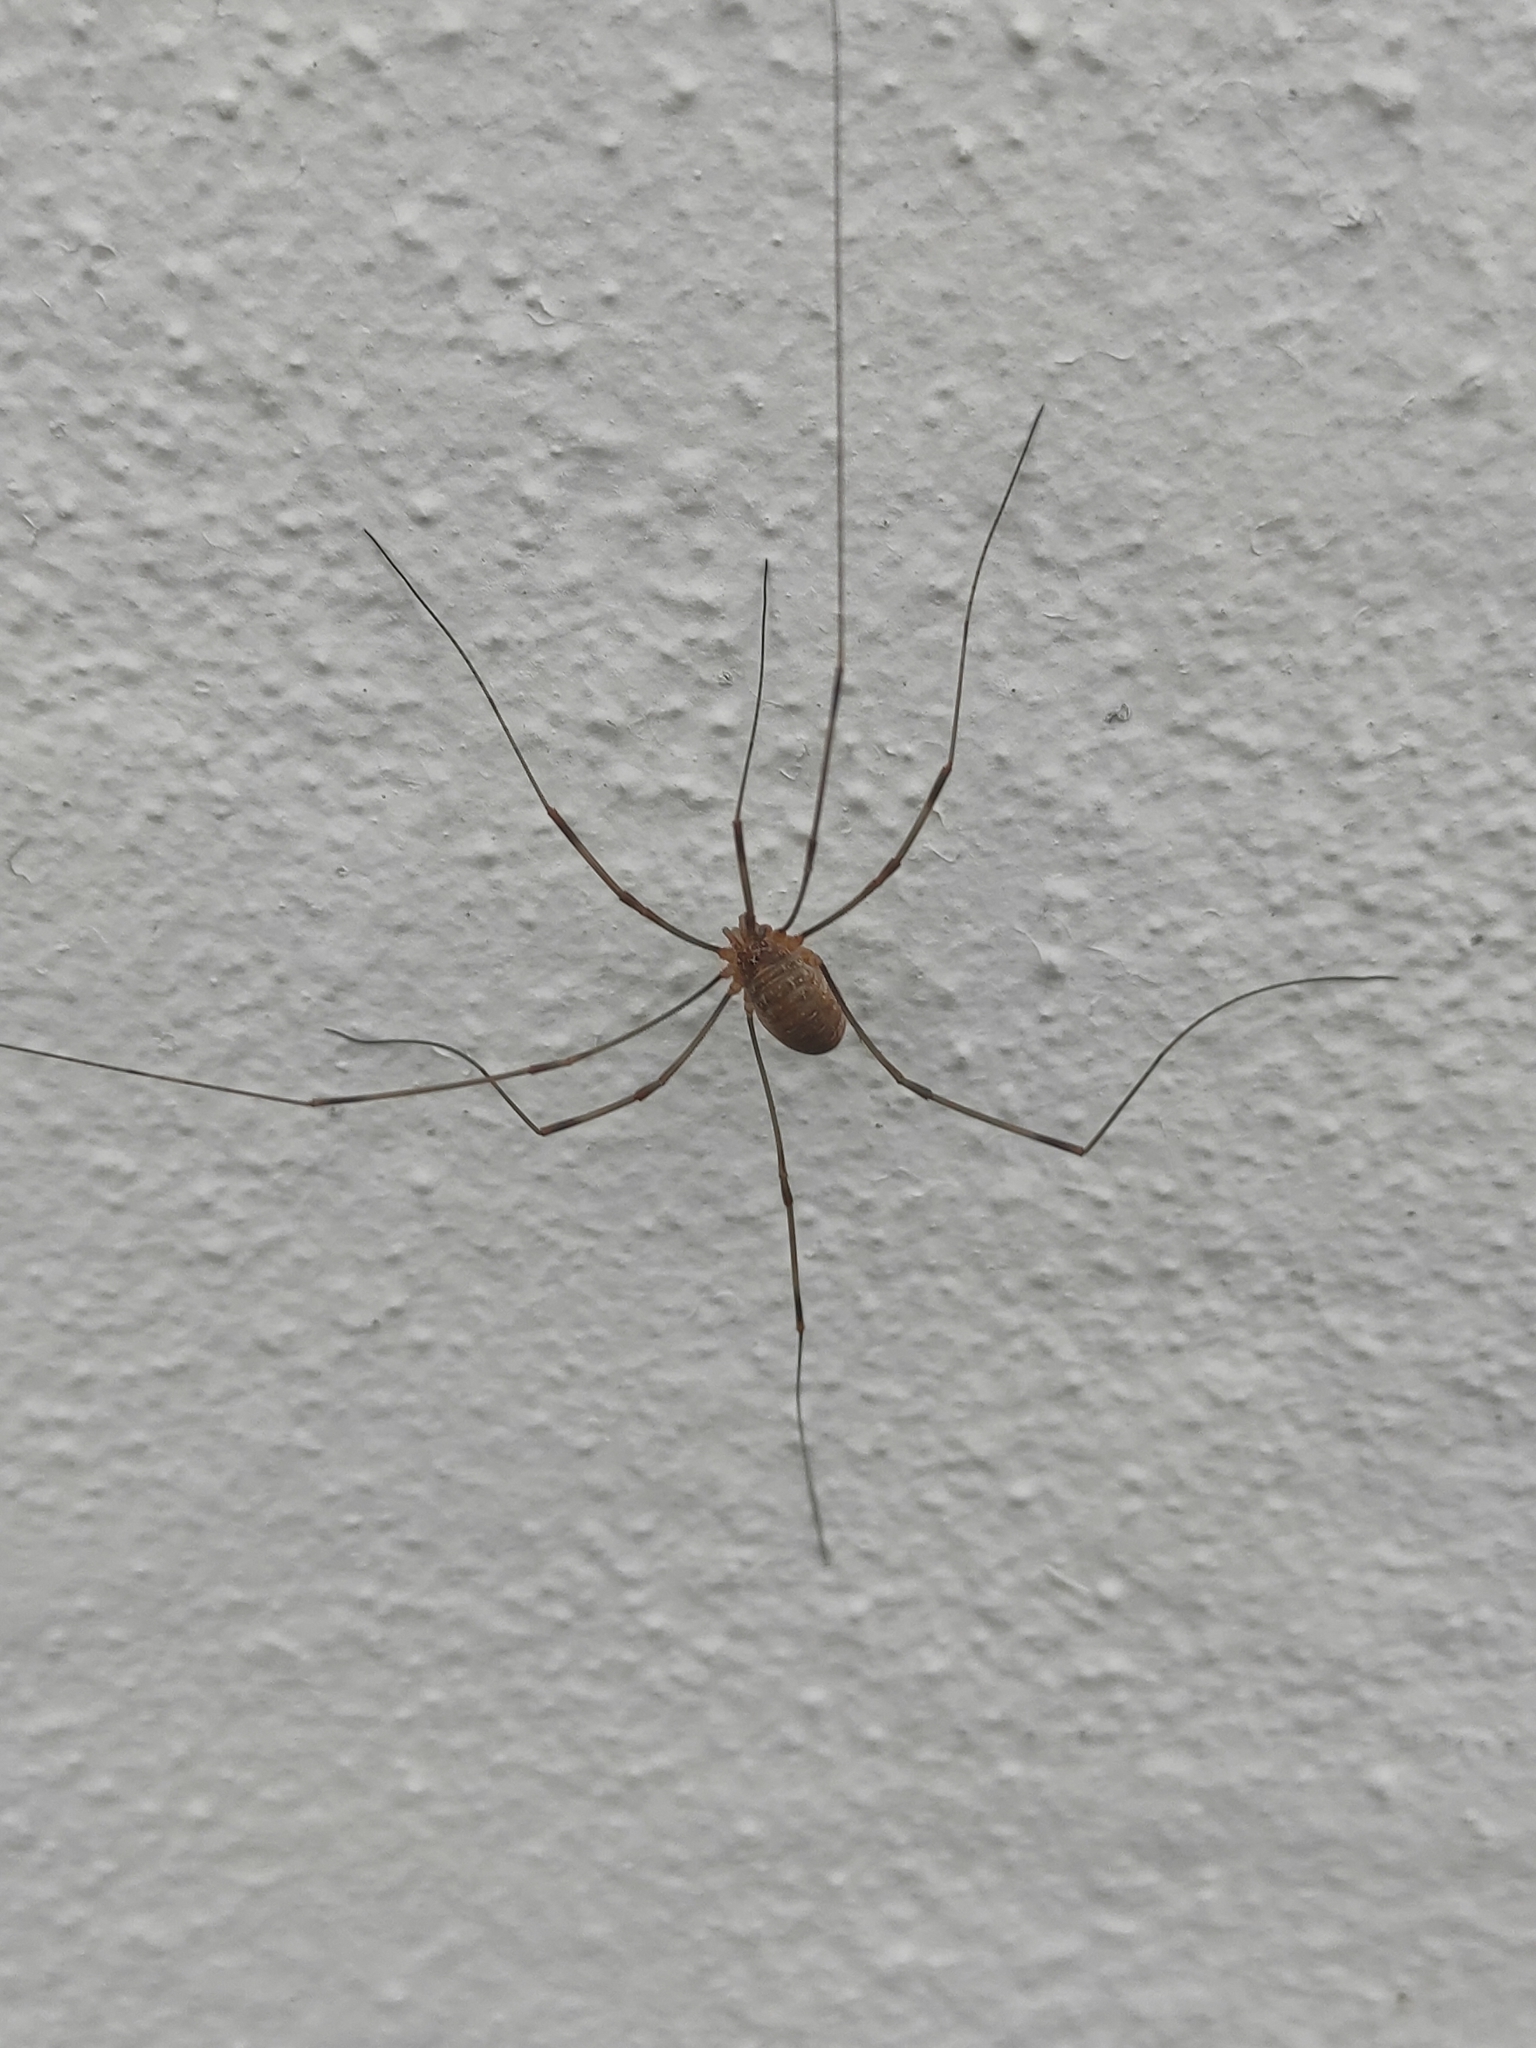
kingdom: Animalia
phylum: Arthropoda
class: Arachnida
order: Opiliones
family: Phalangiidae
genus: Opilio
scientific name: Opilio canestrinii
